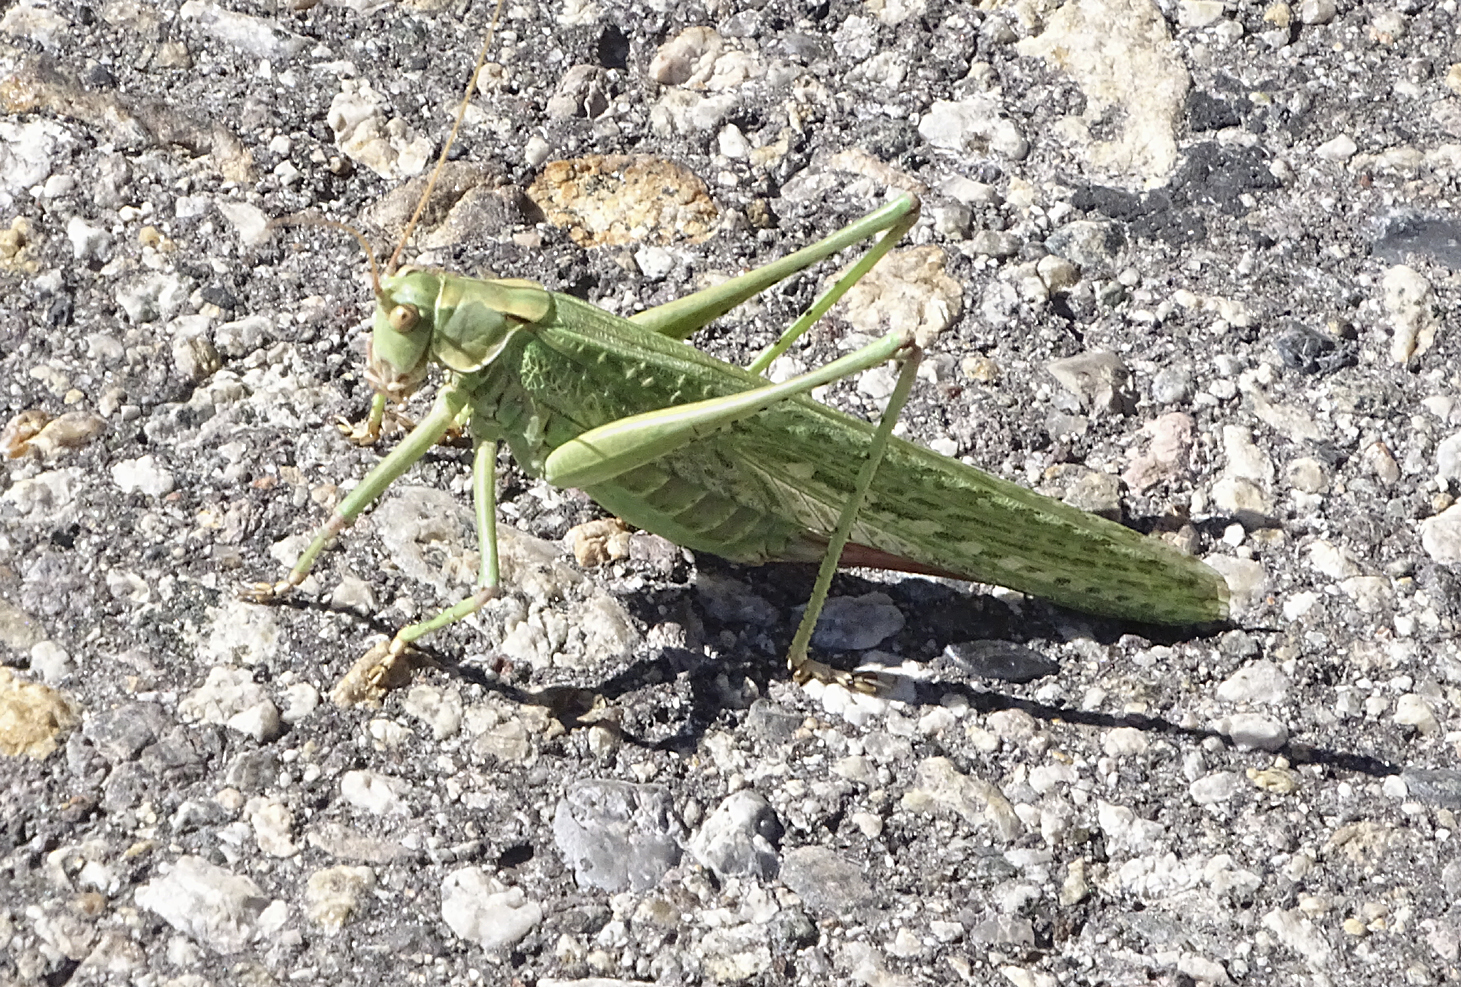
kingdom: Animalia
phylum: Arthropoda
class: Insecta
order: Orthoptera
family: Tettigoniidae
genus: Capnobotes
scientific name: Capnobotes occidentalis
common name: Western longwing
